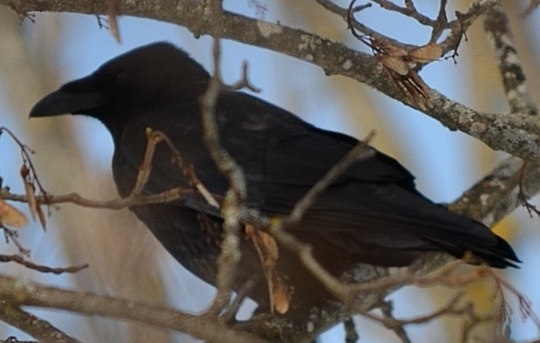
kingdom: Animalia
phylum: Chordata
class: Aves
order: Passeriformes
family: Corvidae
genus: Corvus
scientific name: Corvus corone
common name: Carrion crow
